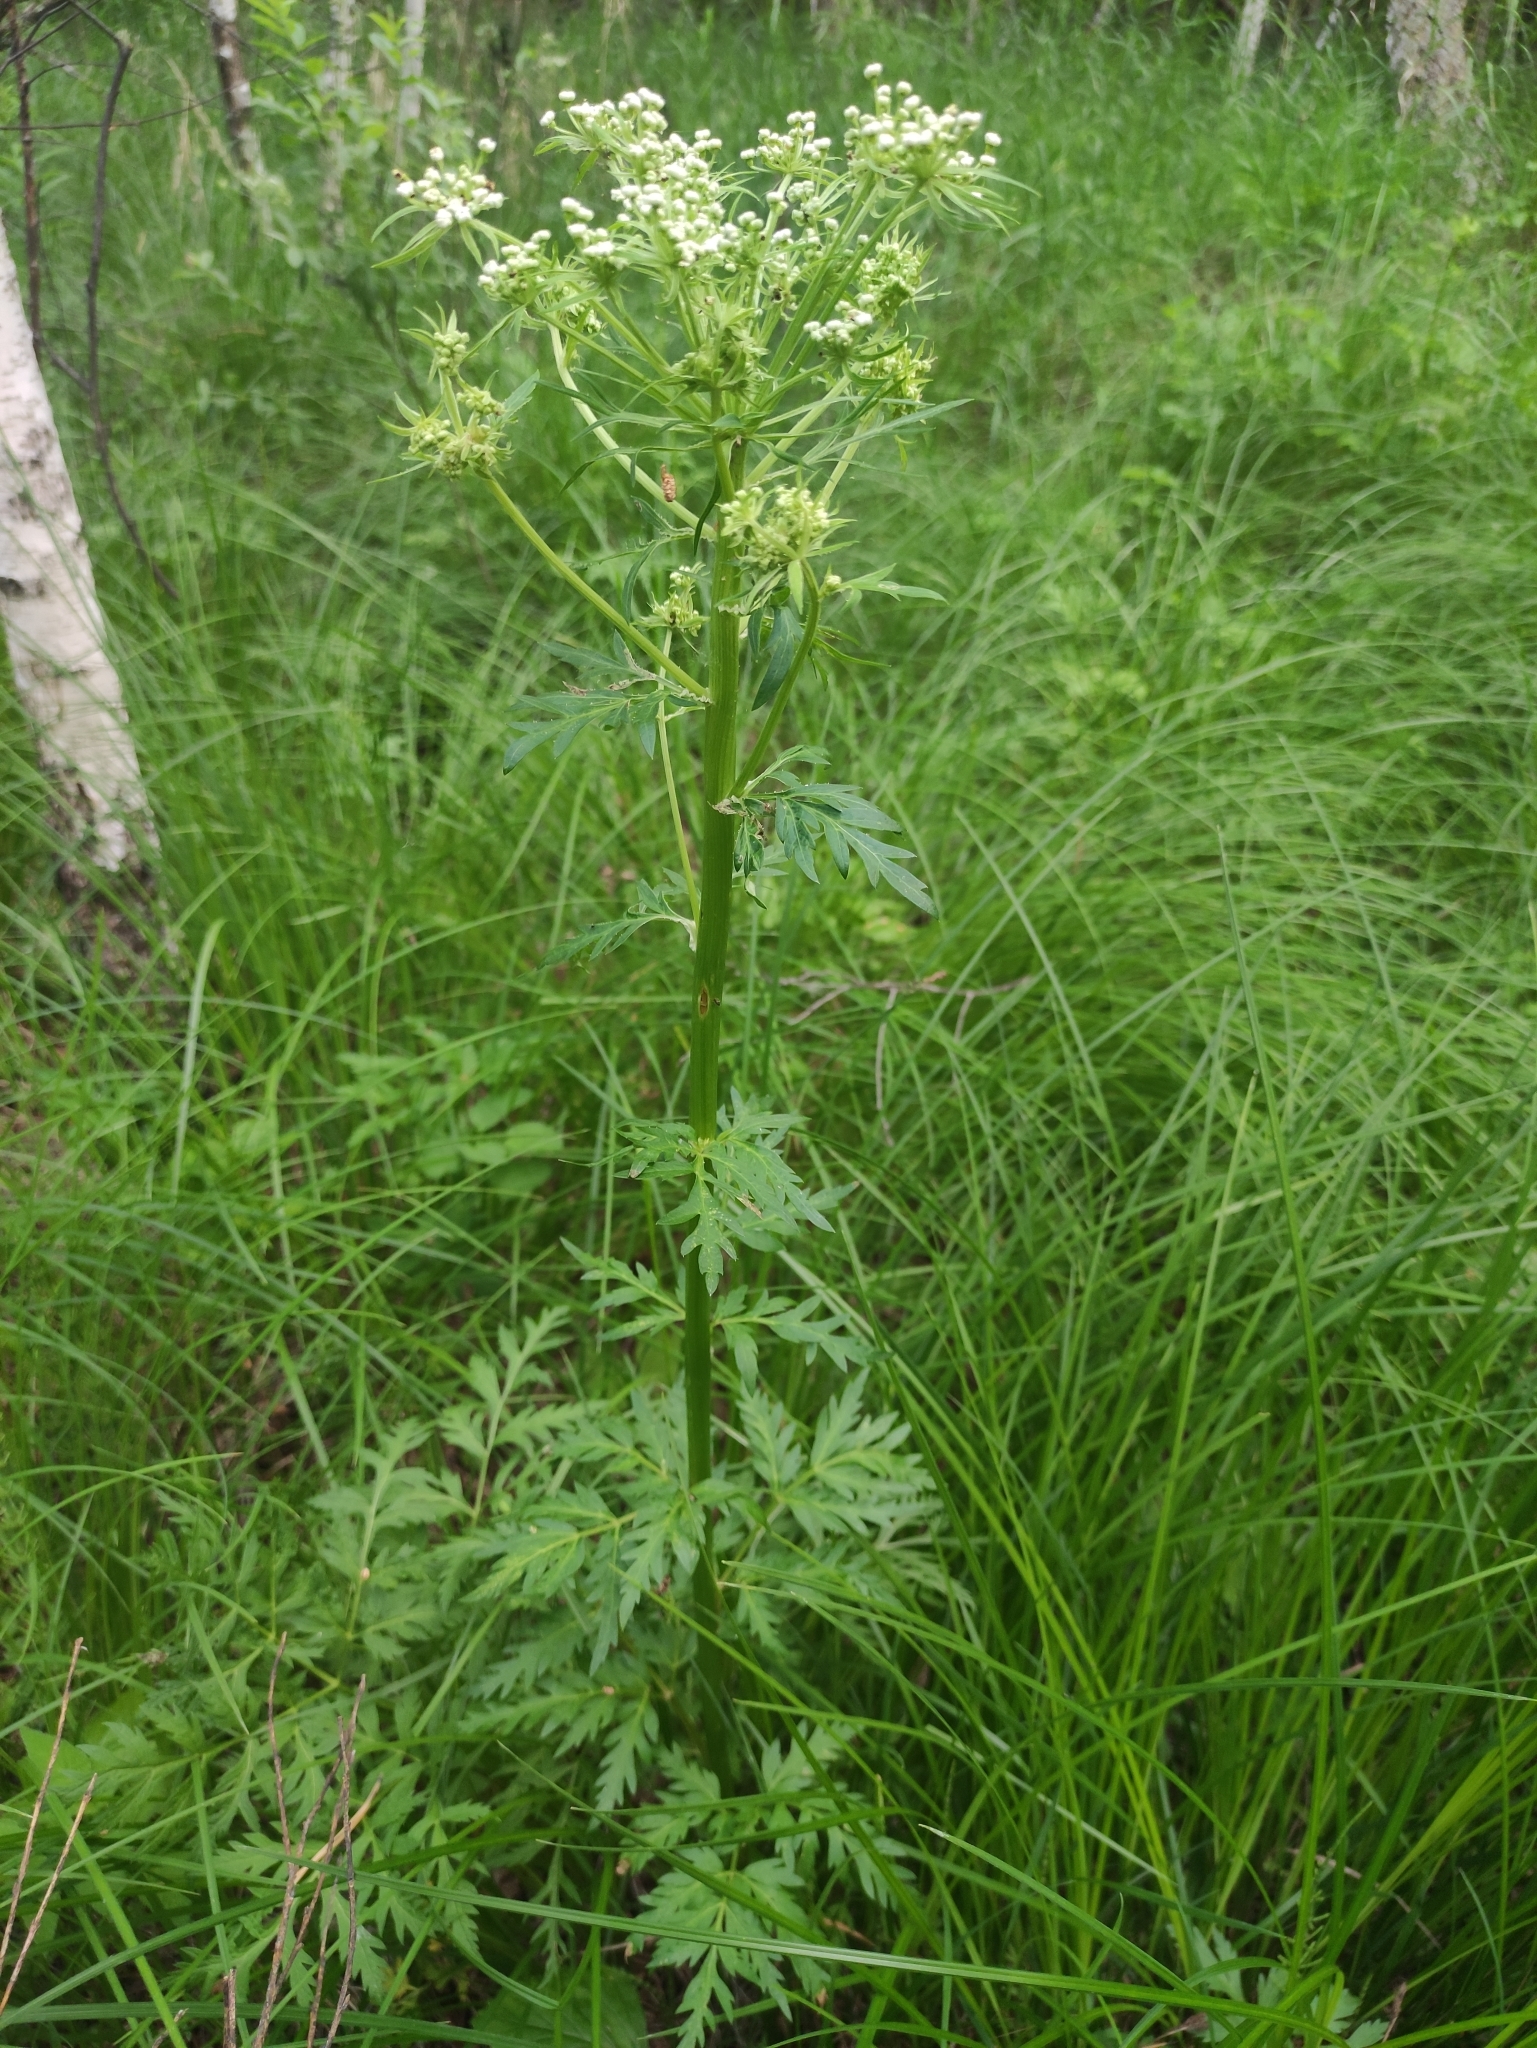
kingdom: Plantae
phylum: Tracheophyta
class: Magnoliopsida
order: Apiales
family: Apiaceae
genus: Pleurospermum
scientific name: Pleurospermum uralense
